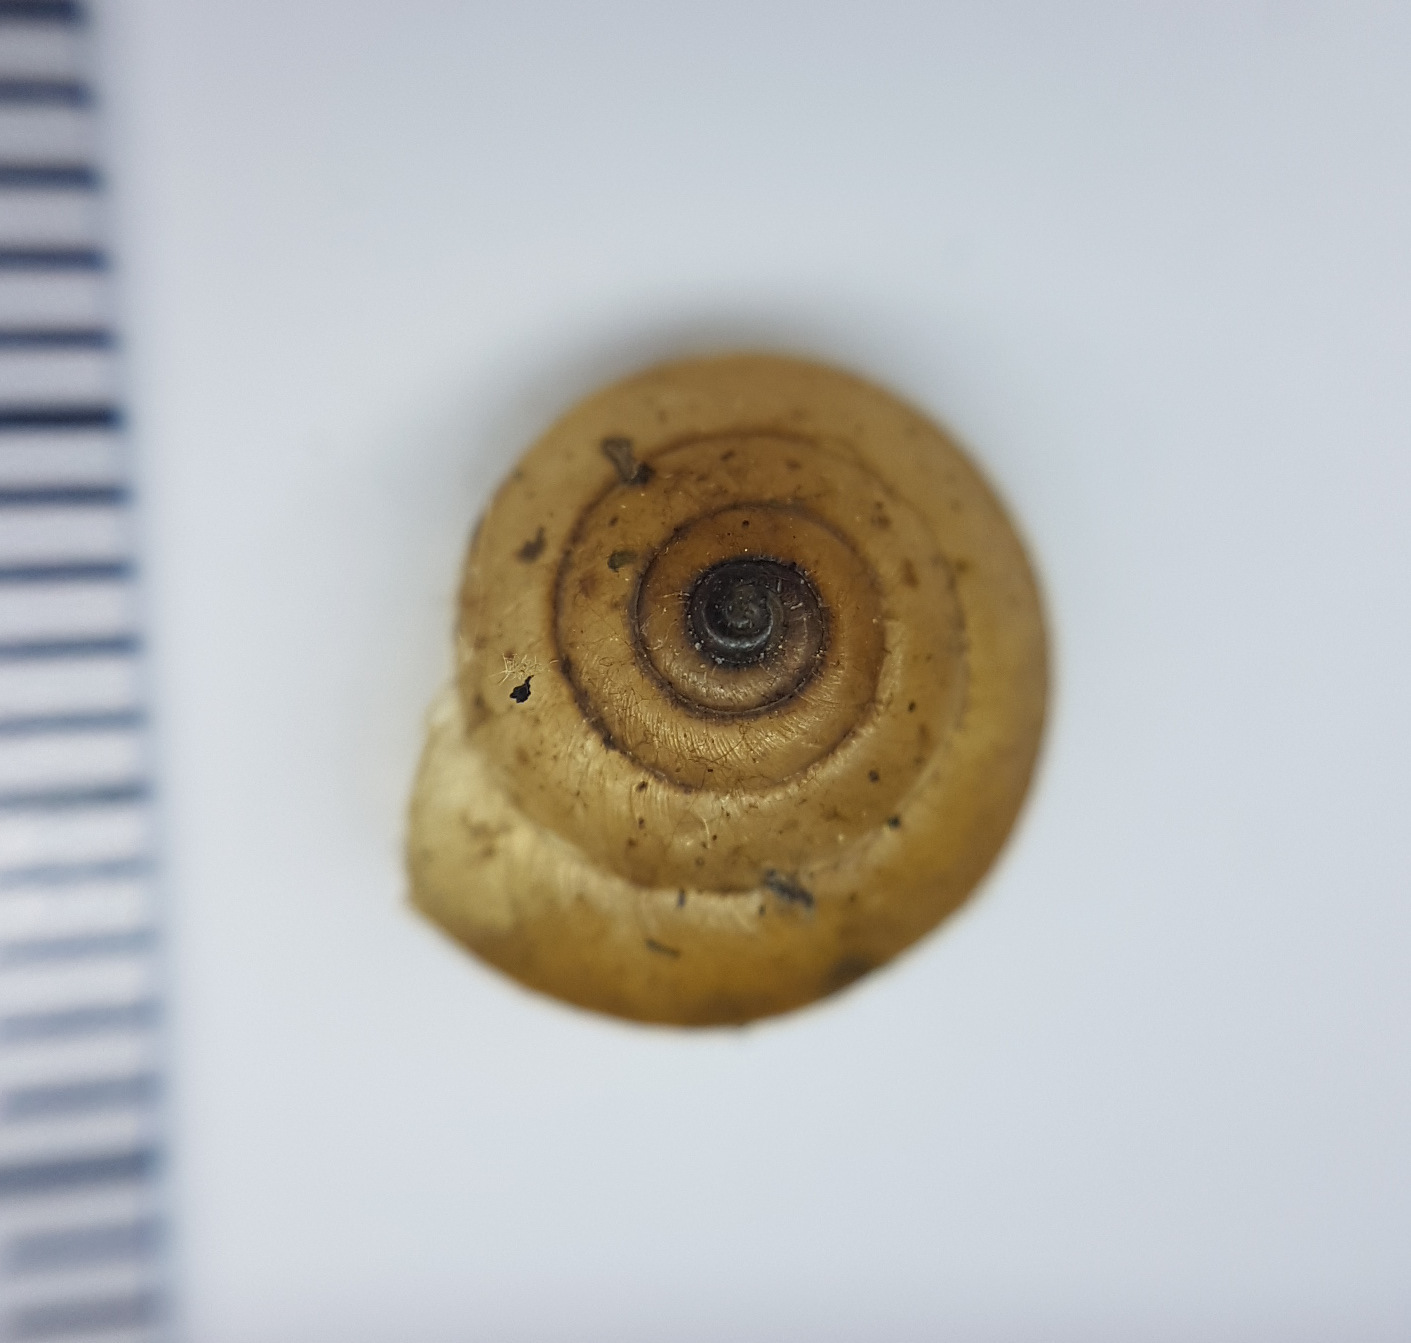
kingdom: Animalia
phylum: Mollusca
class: Gastropoda
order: Stylommatophora
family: Hygromiidae
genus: Hygromia
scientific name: Hygromia cinctella
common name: Girdled snail
